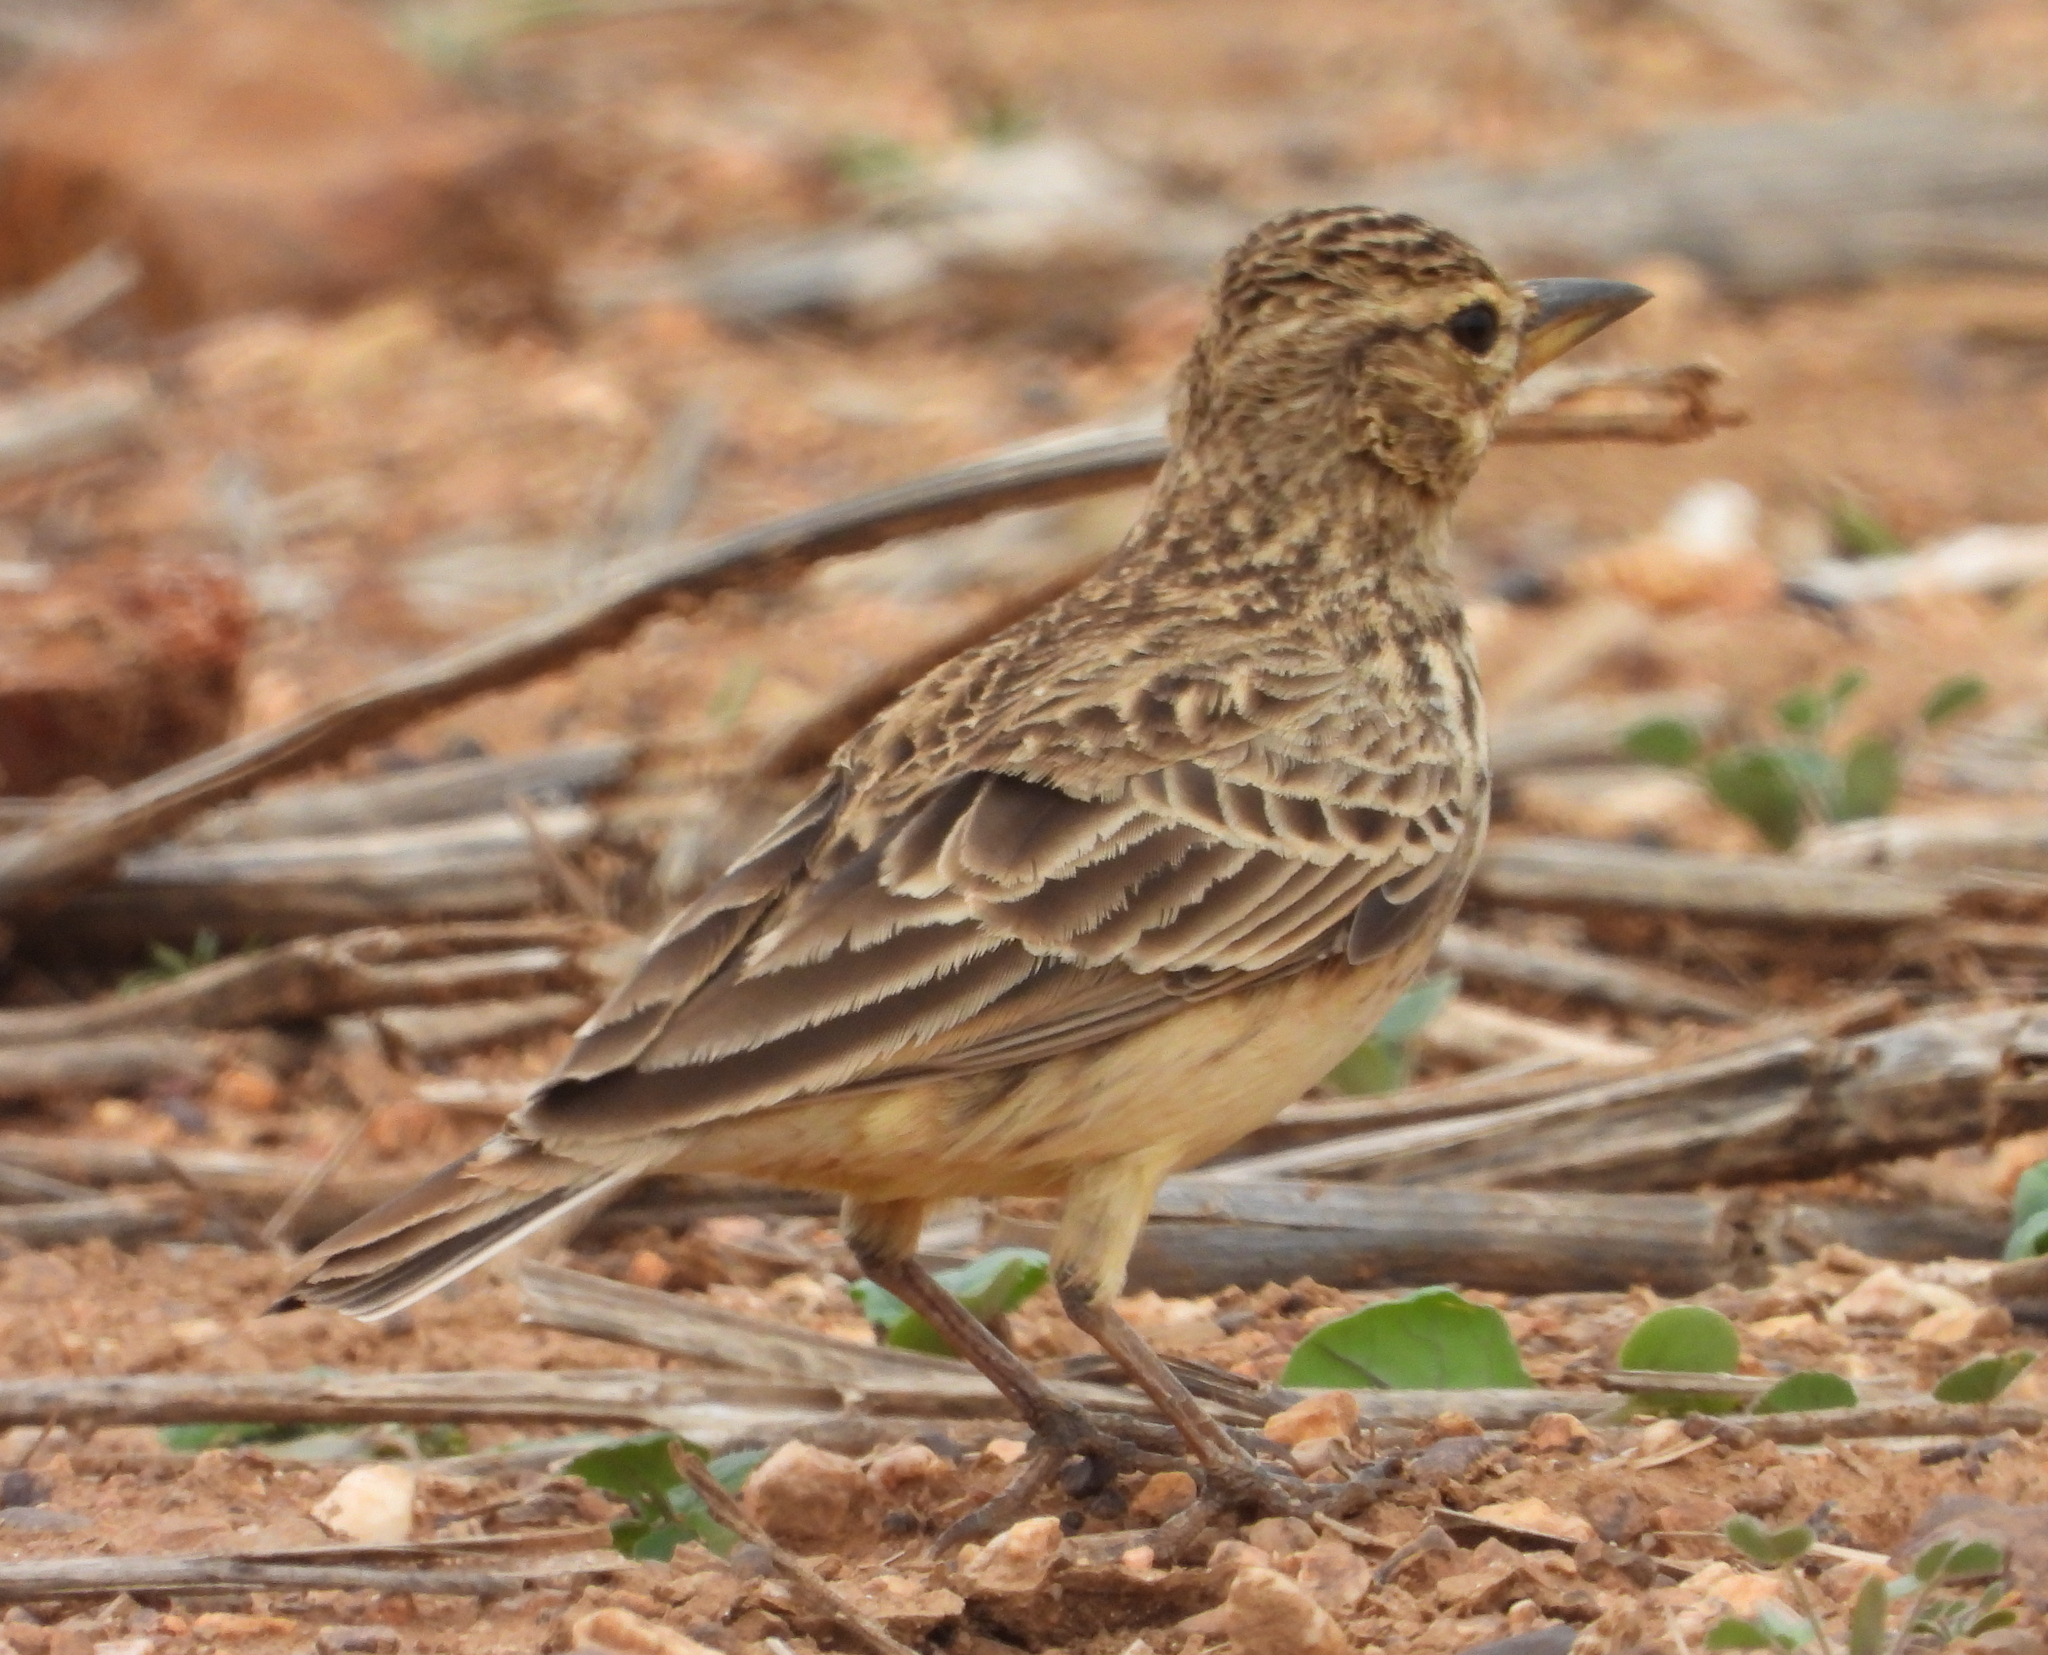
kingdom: Animalia
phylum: Chordata
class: Aves
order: Passeriformes
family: Alaudidae
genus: Galerida
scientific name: Galerida magnirostris
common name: Large-billed lark
